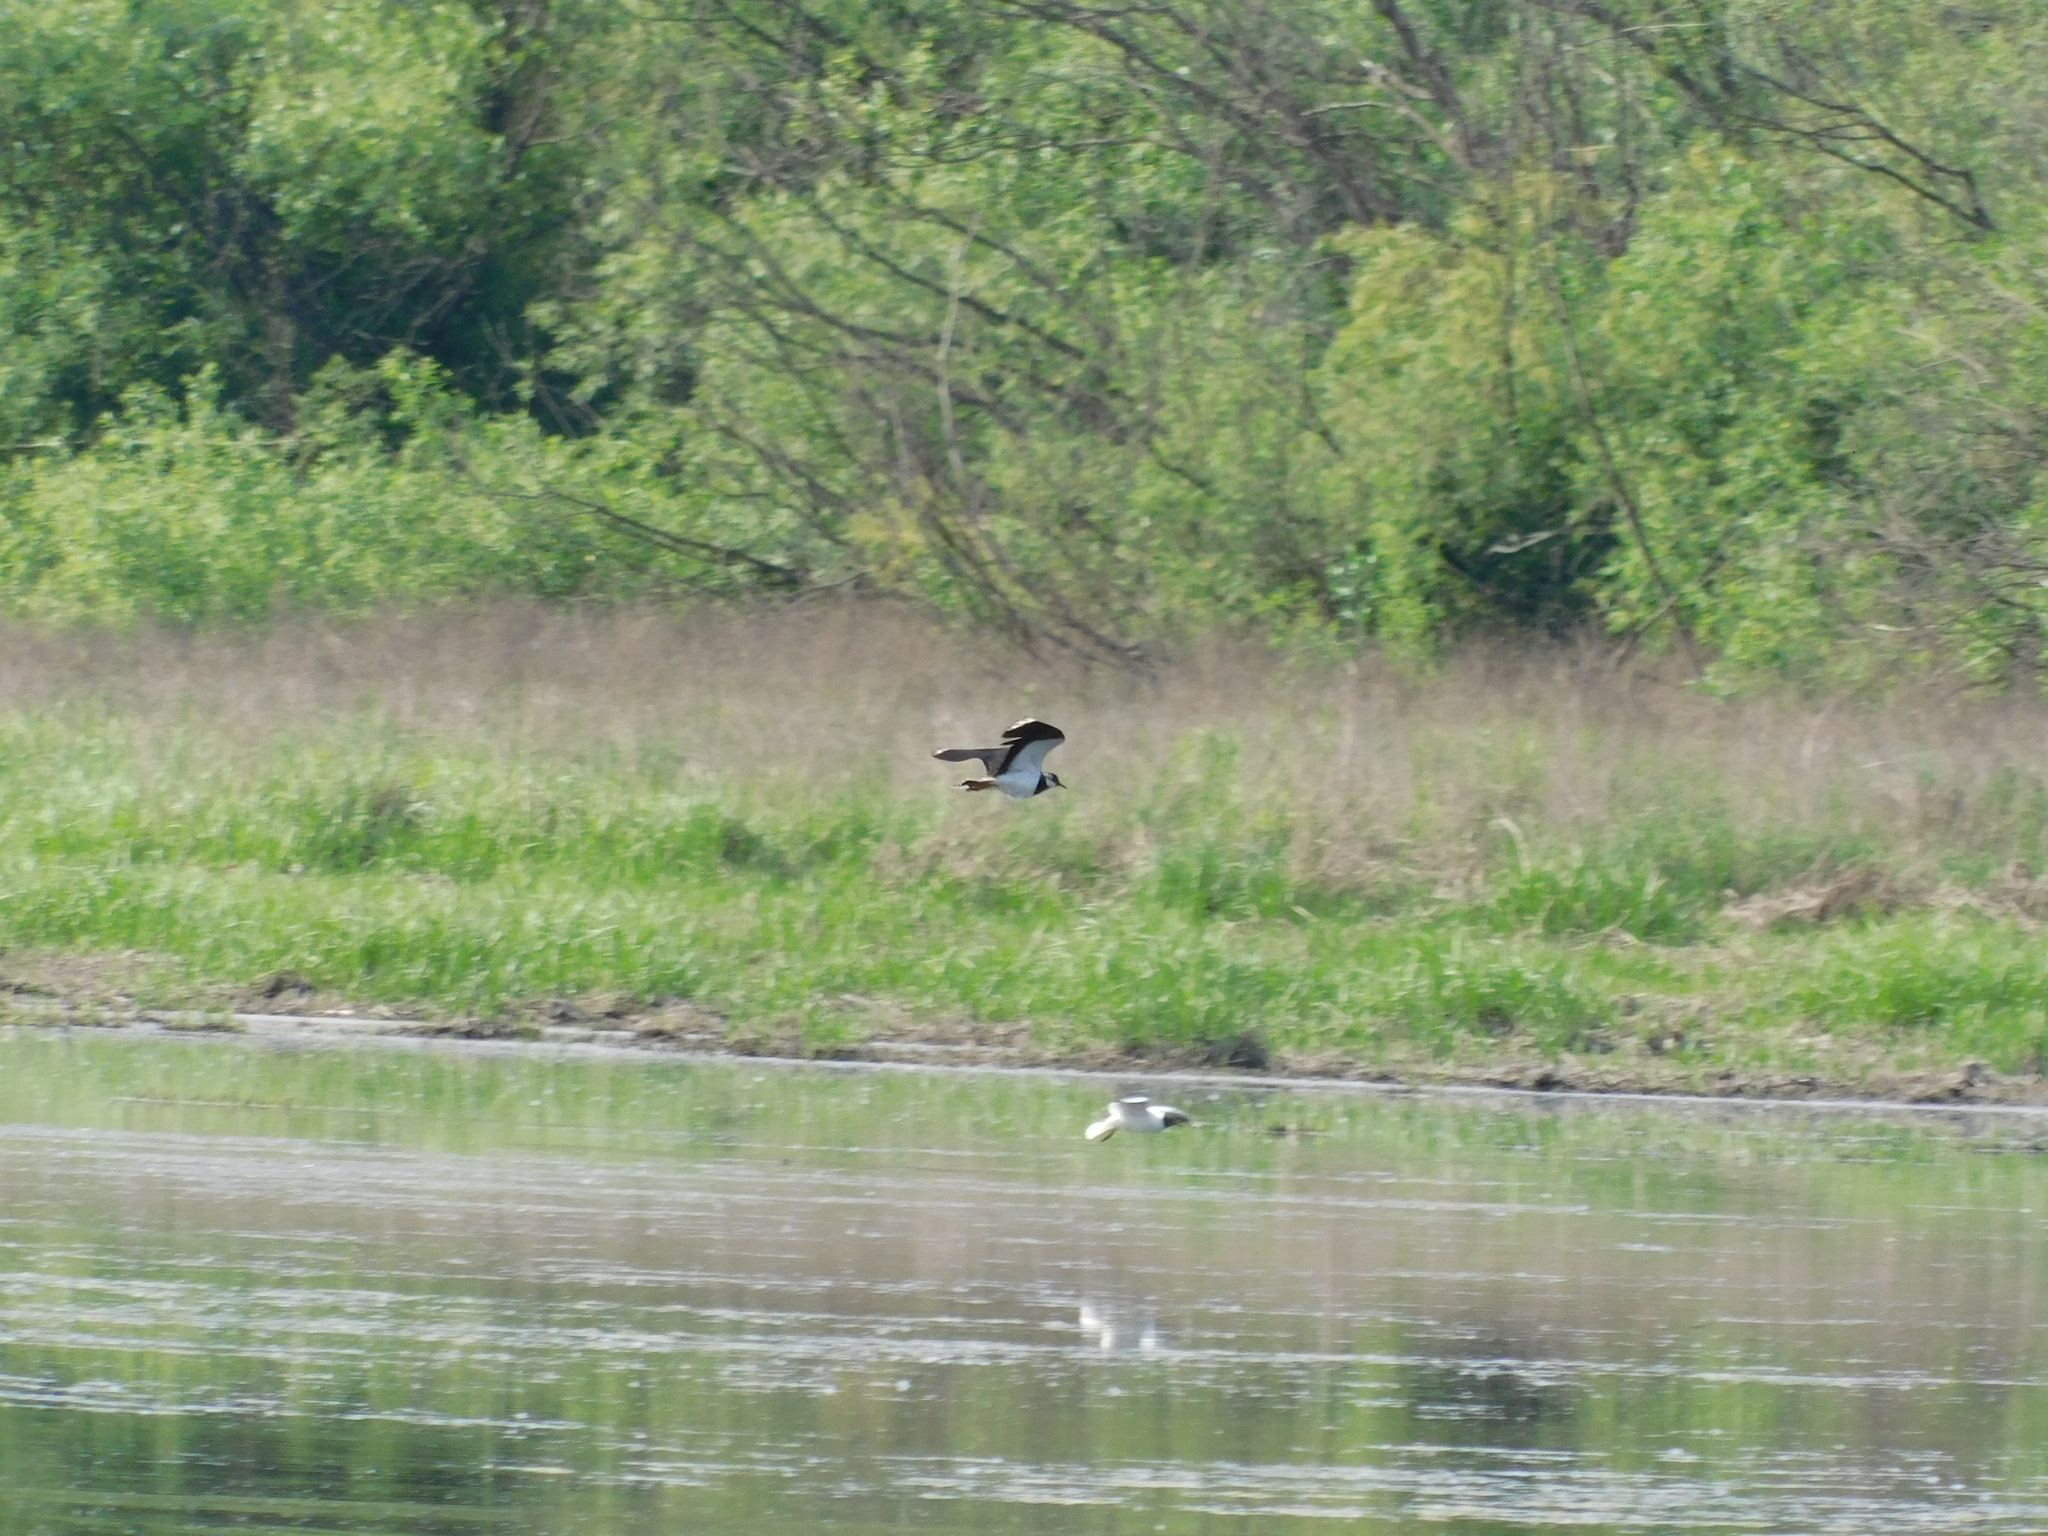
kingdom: Animalia
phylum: Chordata
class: Aves
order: Charadriiformes
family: Charadriidae
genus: Vanellus
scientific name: Vanellus vanellus
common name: Northern lapwing
